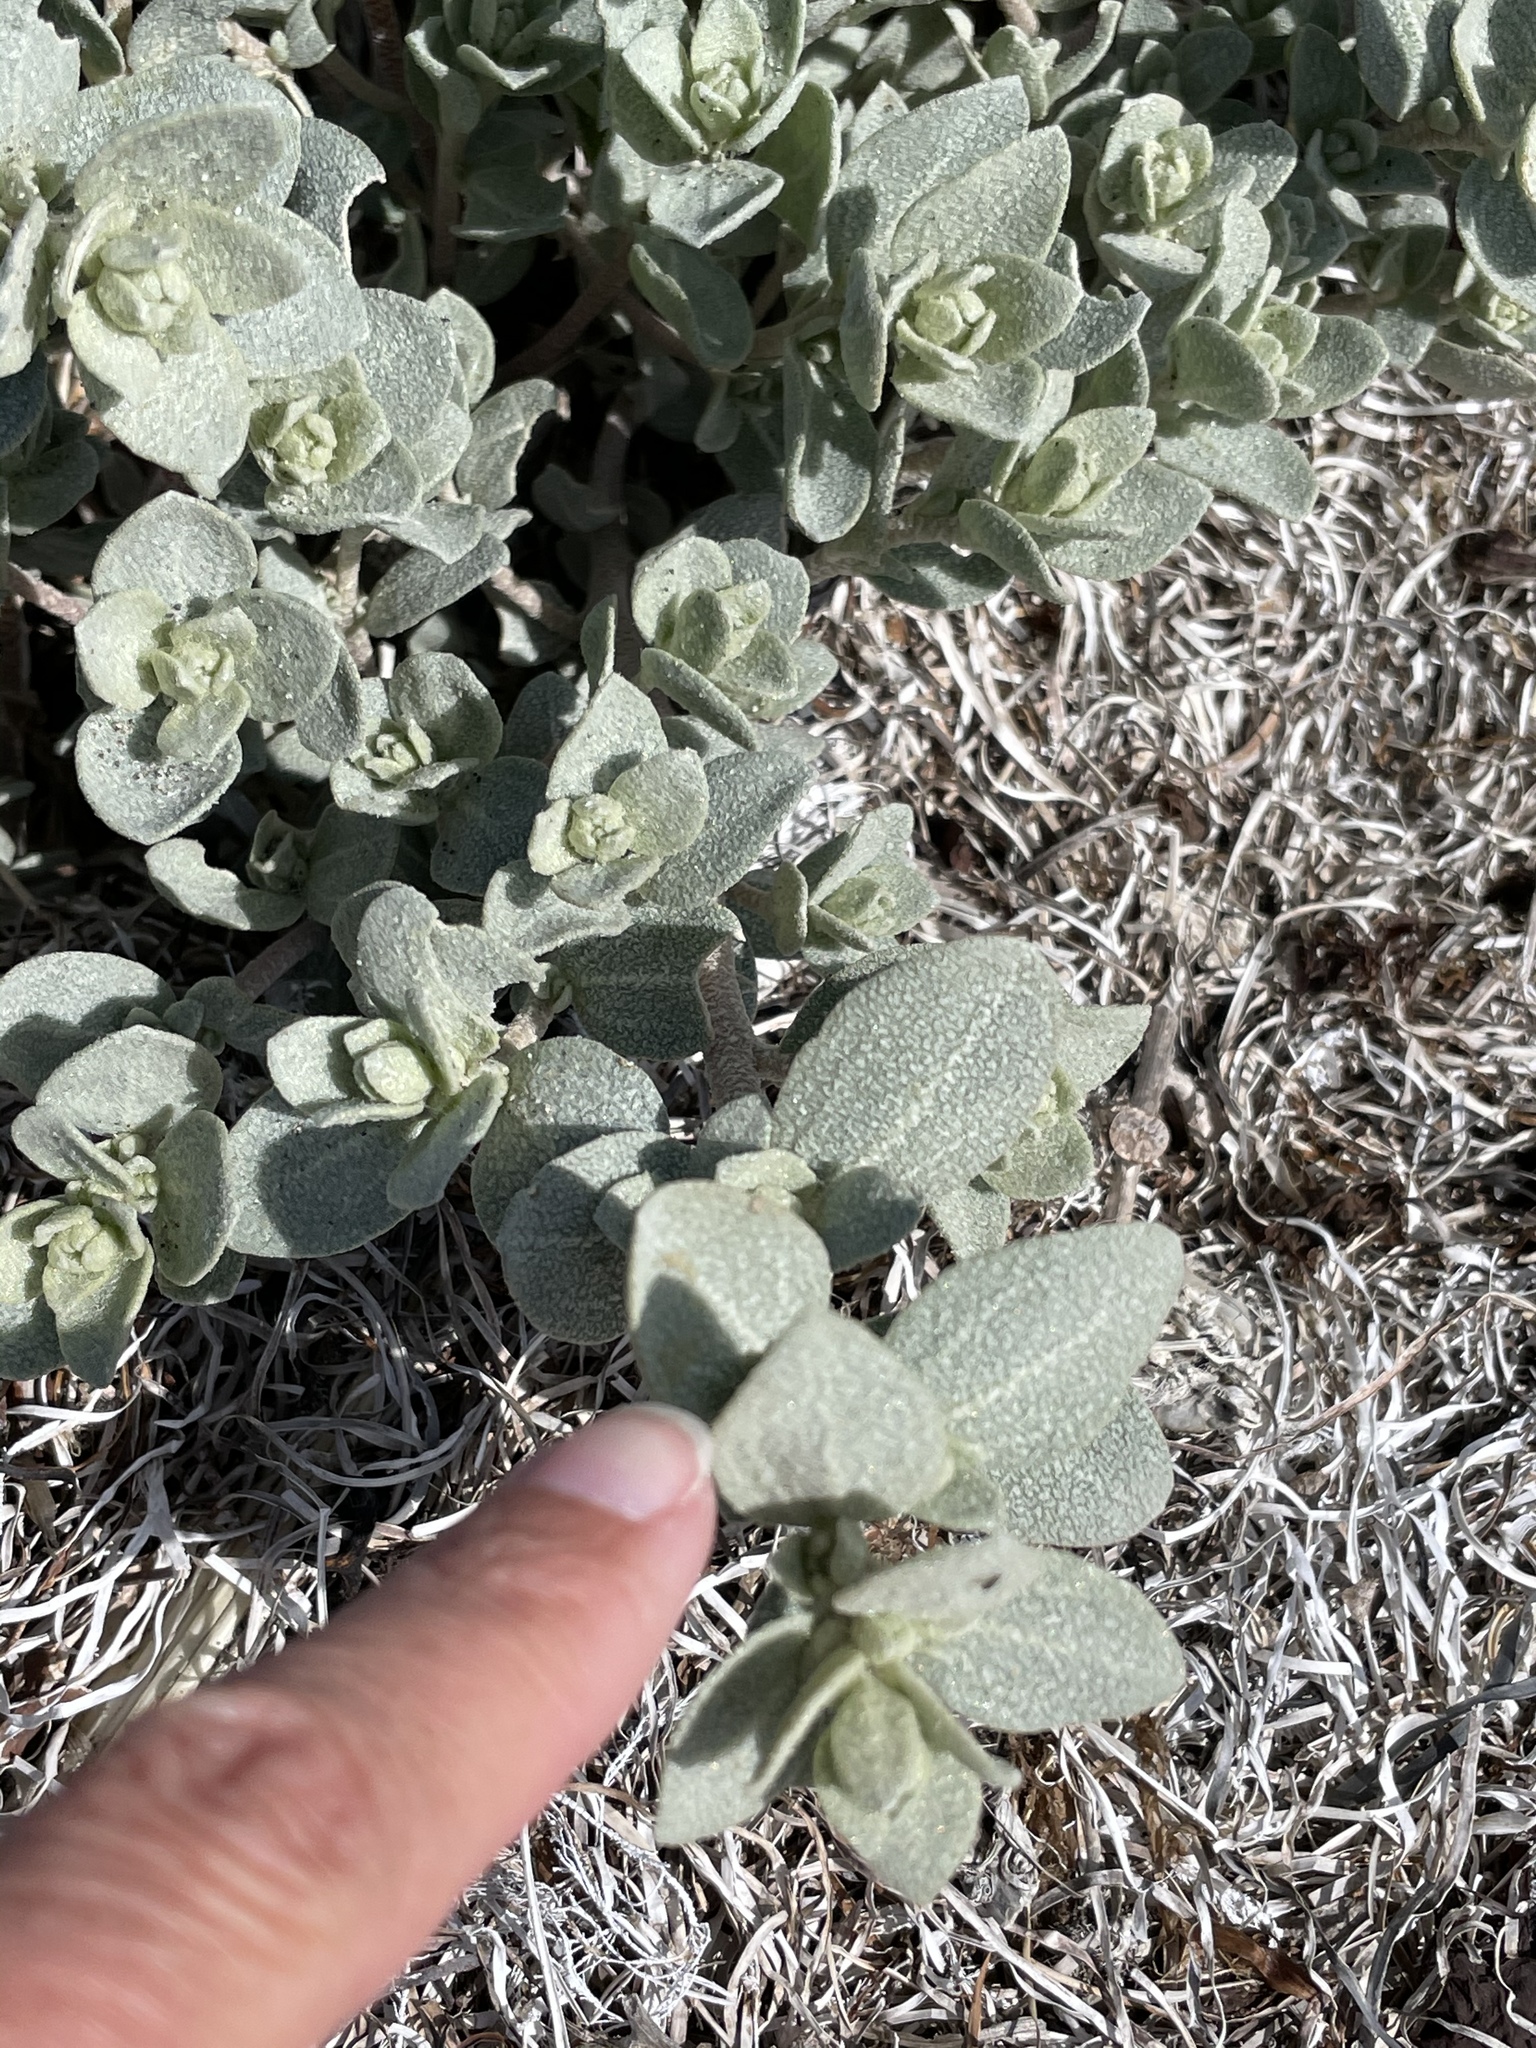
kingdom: Plantae
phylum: Tracheophyta
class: Magnoliopsida
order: Caryophyllales
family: Amaranthaceae
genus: Atriplex
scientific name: Atriplex leucophylla
